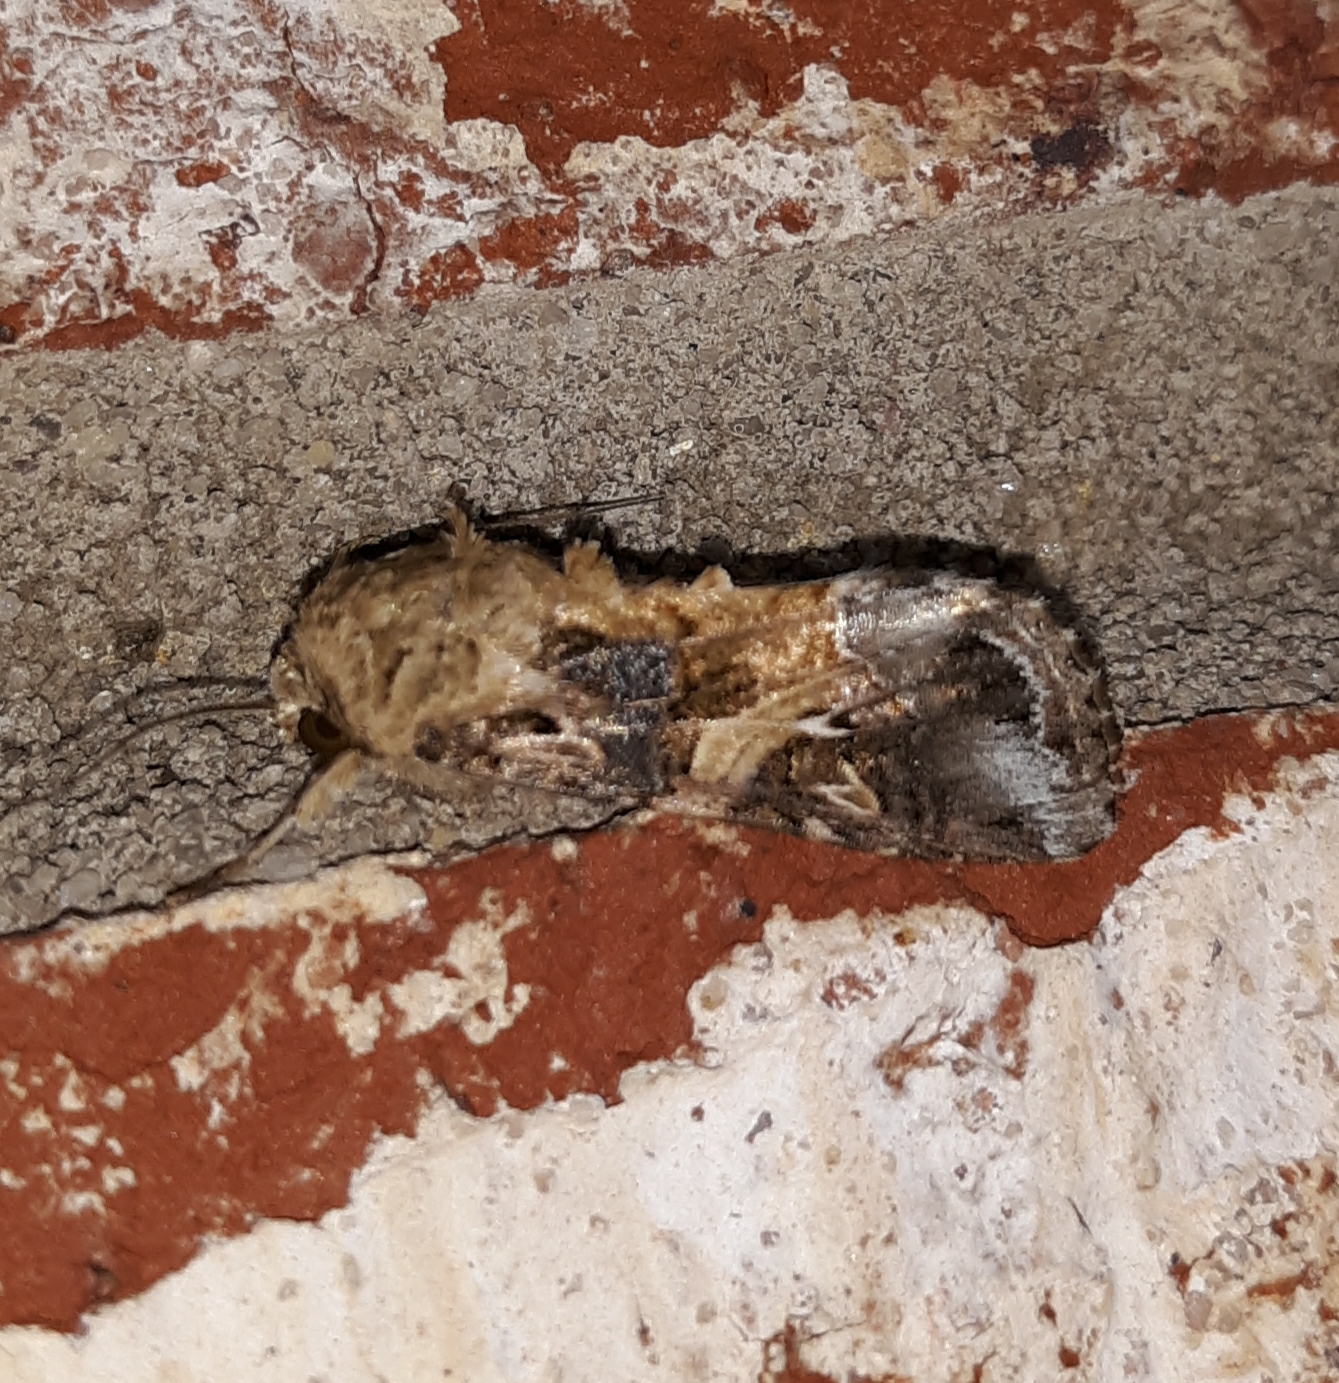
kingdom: Animalia
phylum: Arthropoda
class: Insecta
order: Lepidoptera
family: Noctuidae
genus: Spodoptera
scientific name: Spodoptera ornithogalli
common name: Yellow-striped armyworm
